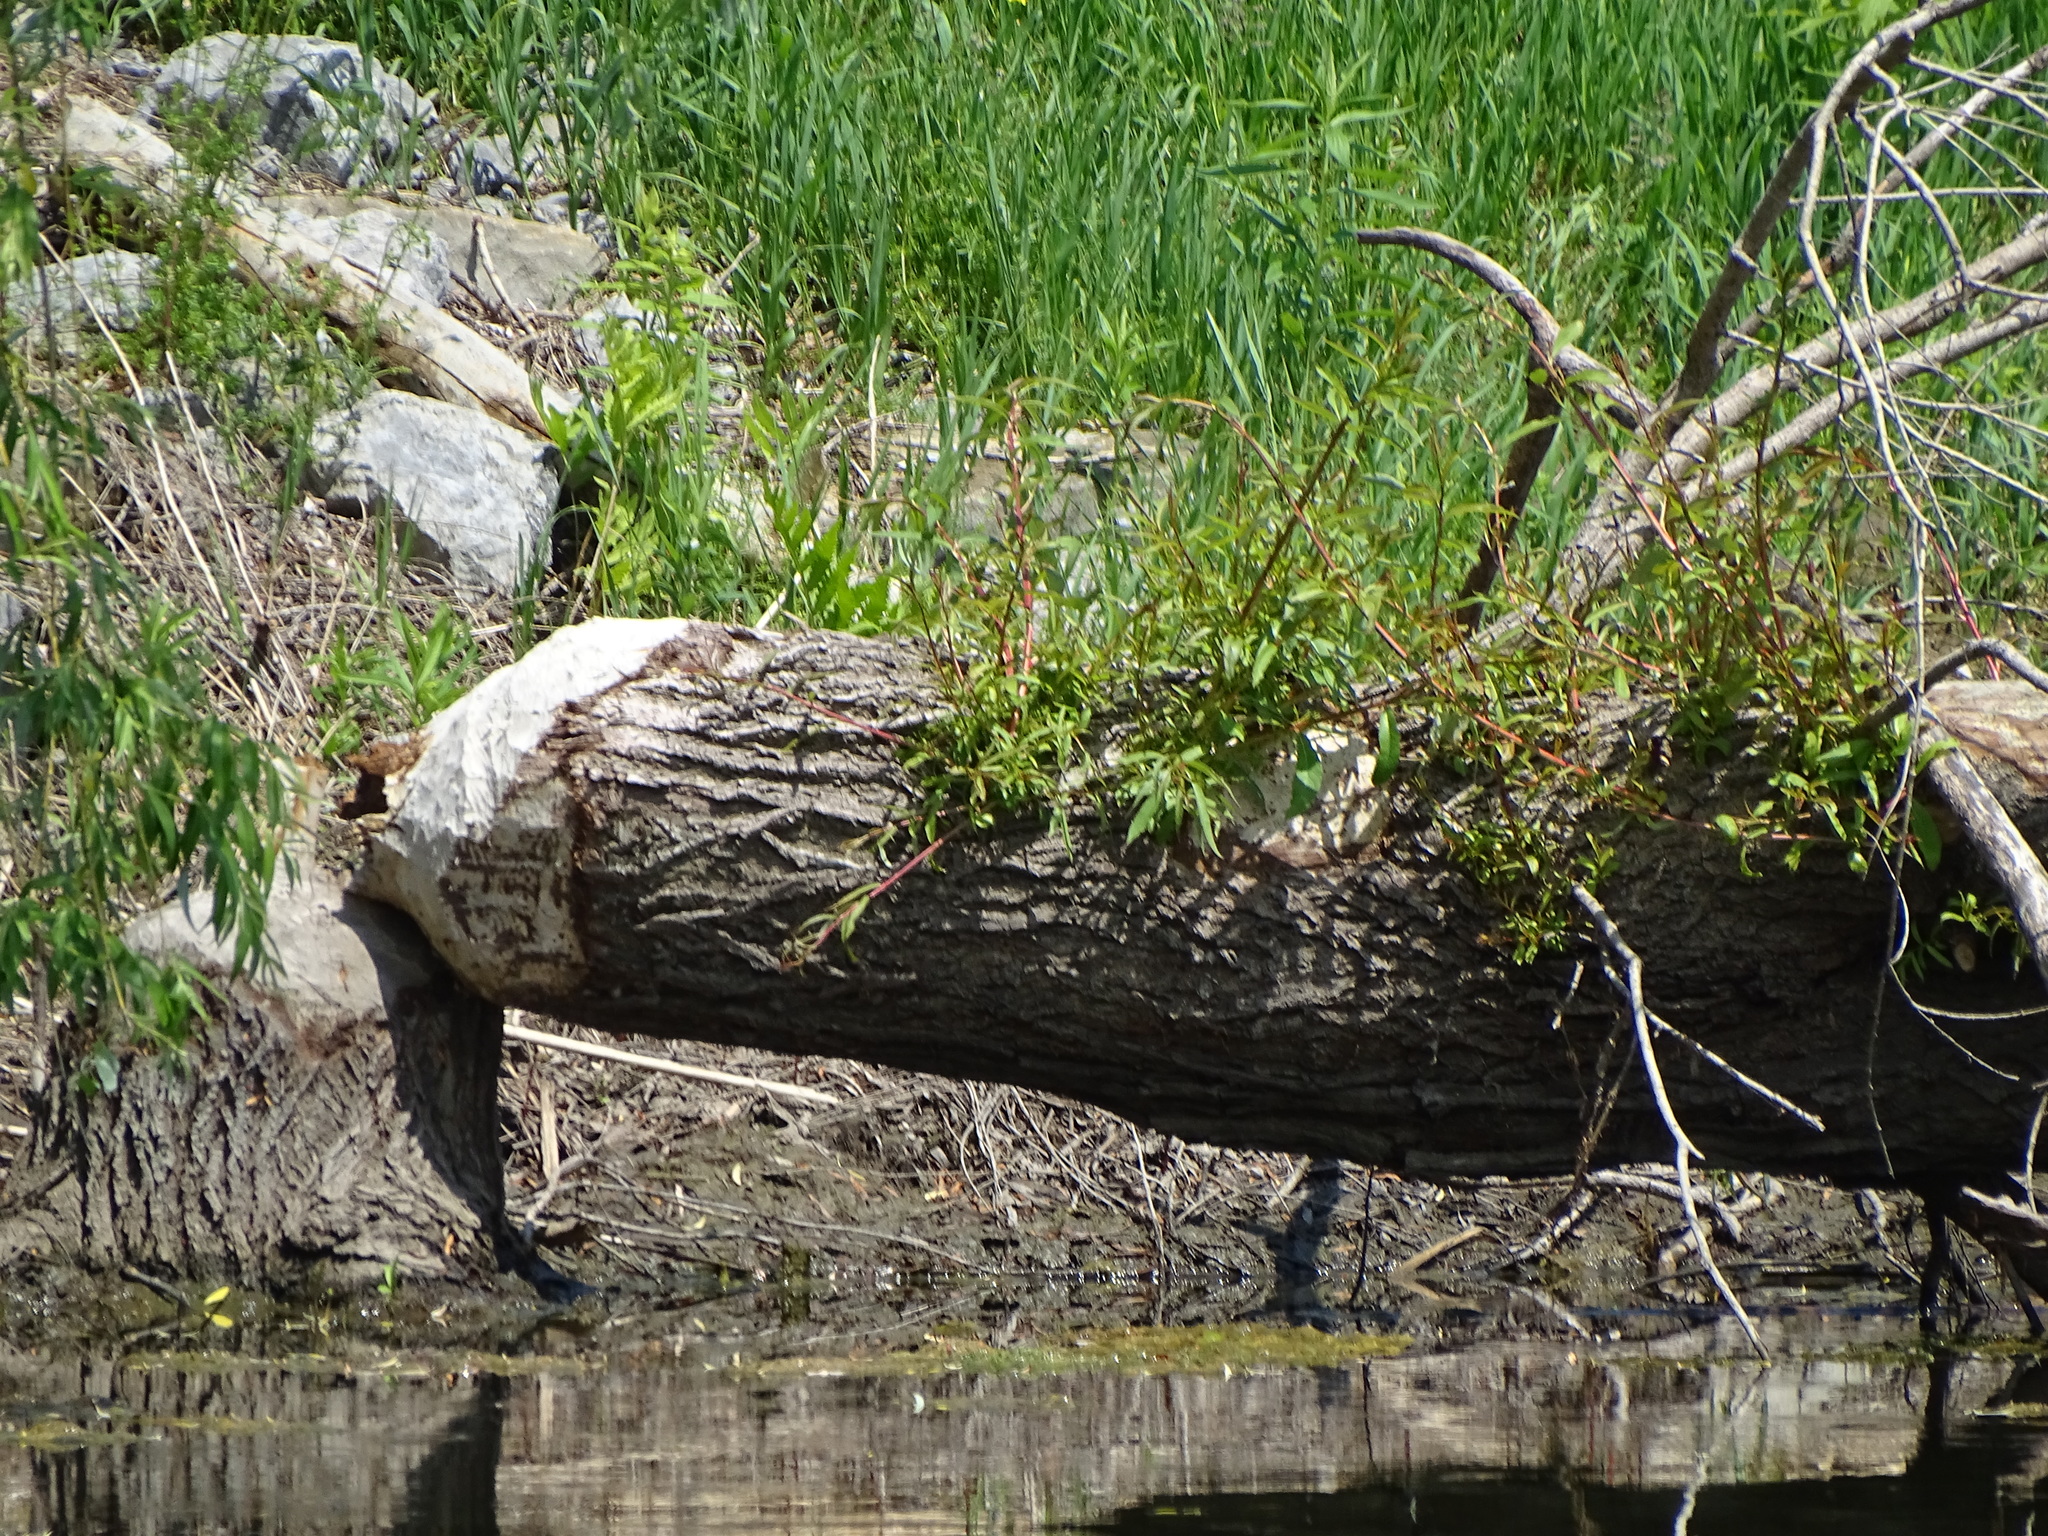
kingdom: Animalia
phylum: Chordata
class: Mammalia
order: Rodentia
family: Castoridae
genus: Castor
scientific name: Castor canadensis
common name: American beaver
